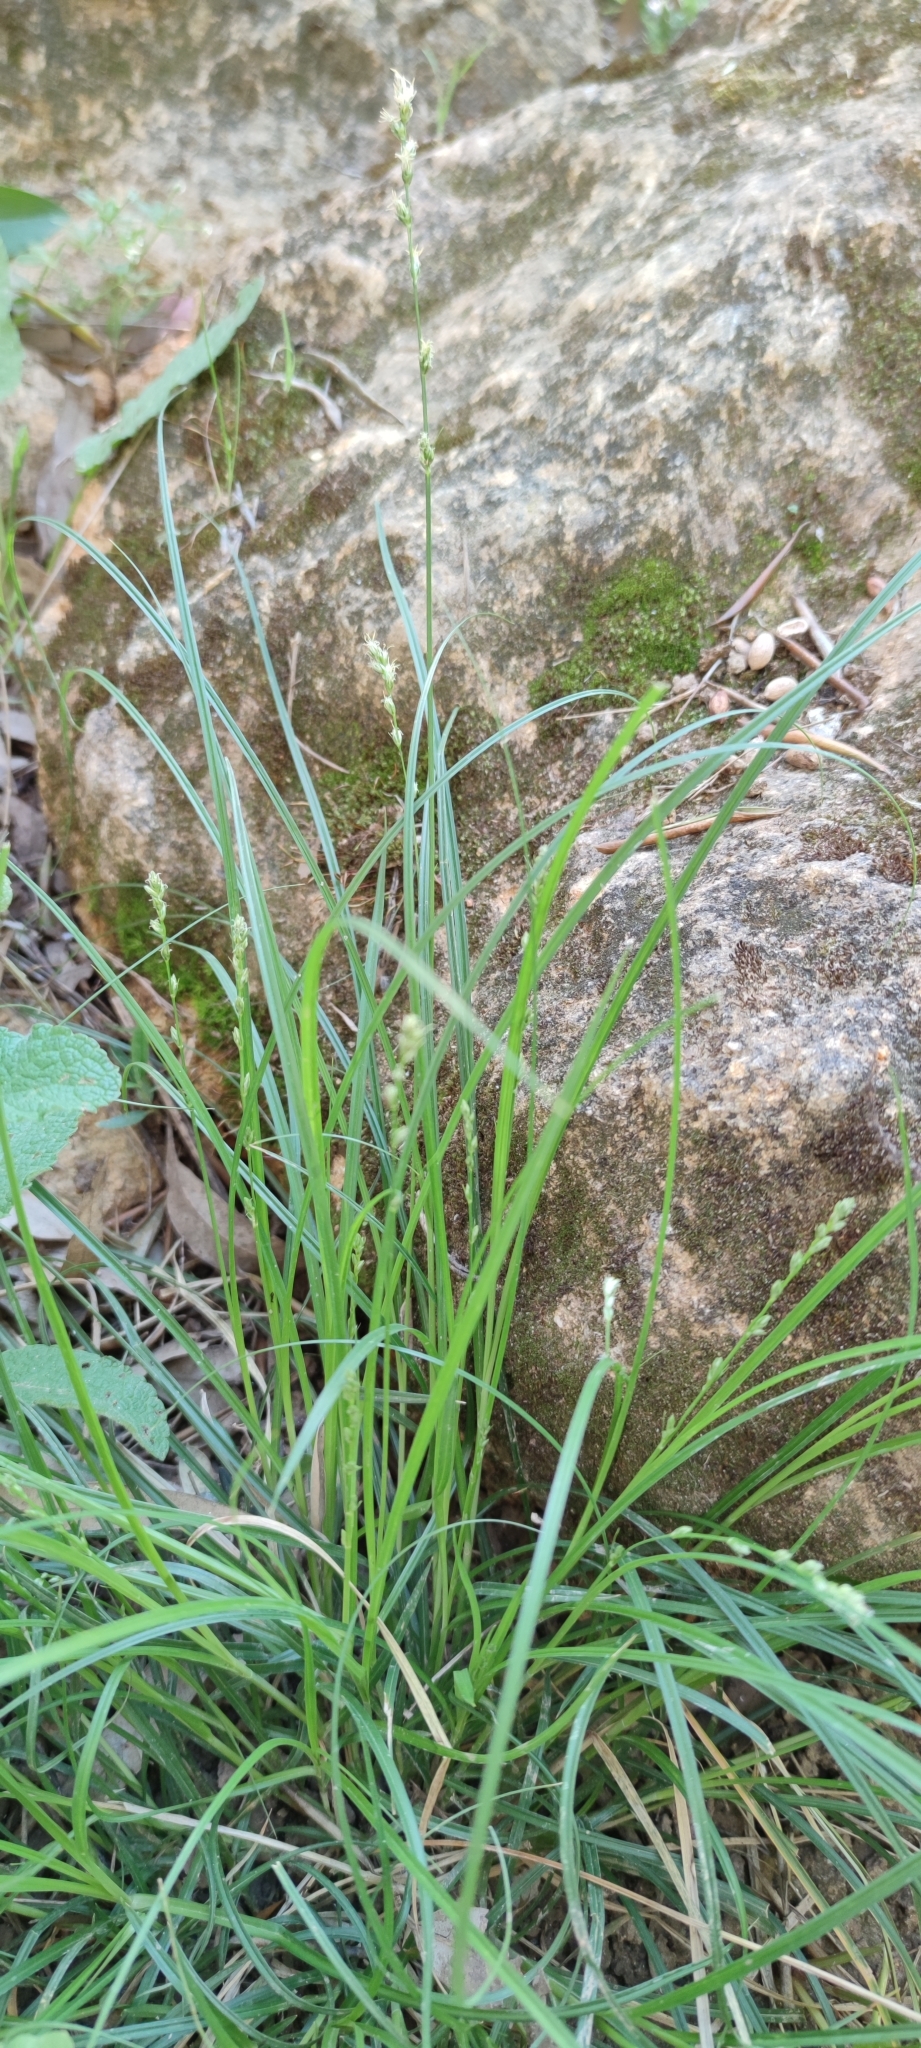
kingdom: Plantae
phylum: Tracheophyta
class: Liliopsida
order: Poales
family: Cyperaceae
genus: Carex
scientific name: Carex divulsa
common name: Grassland sedge
